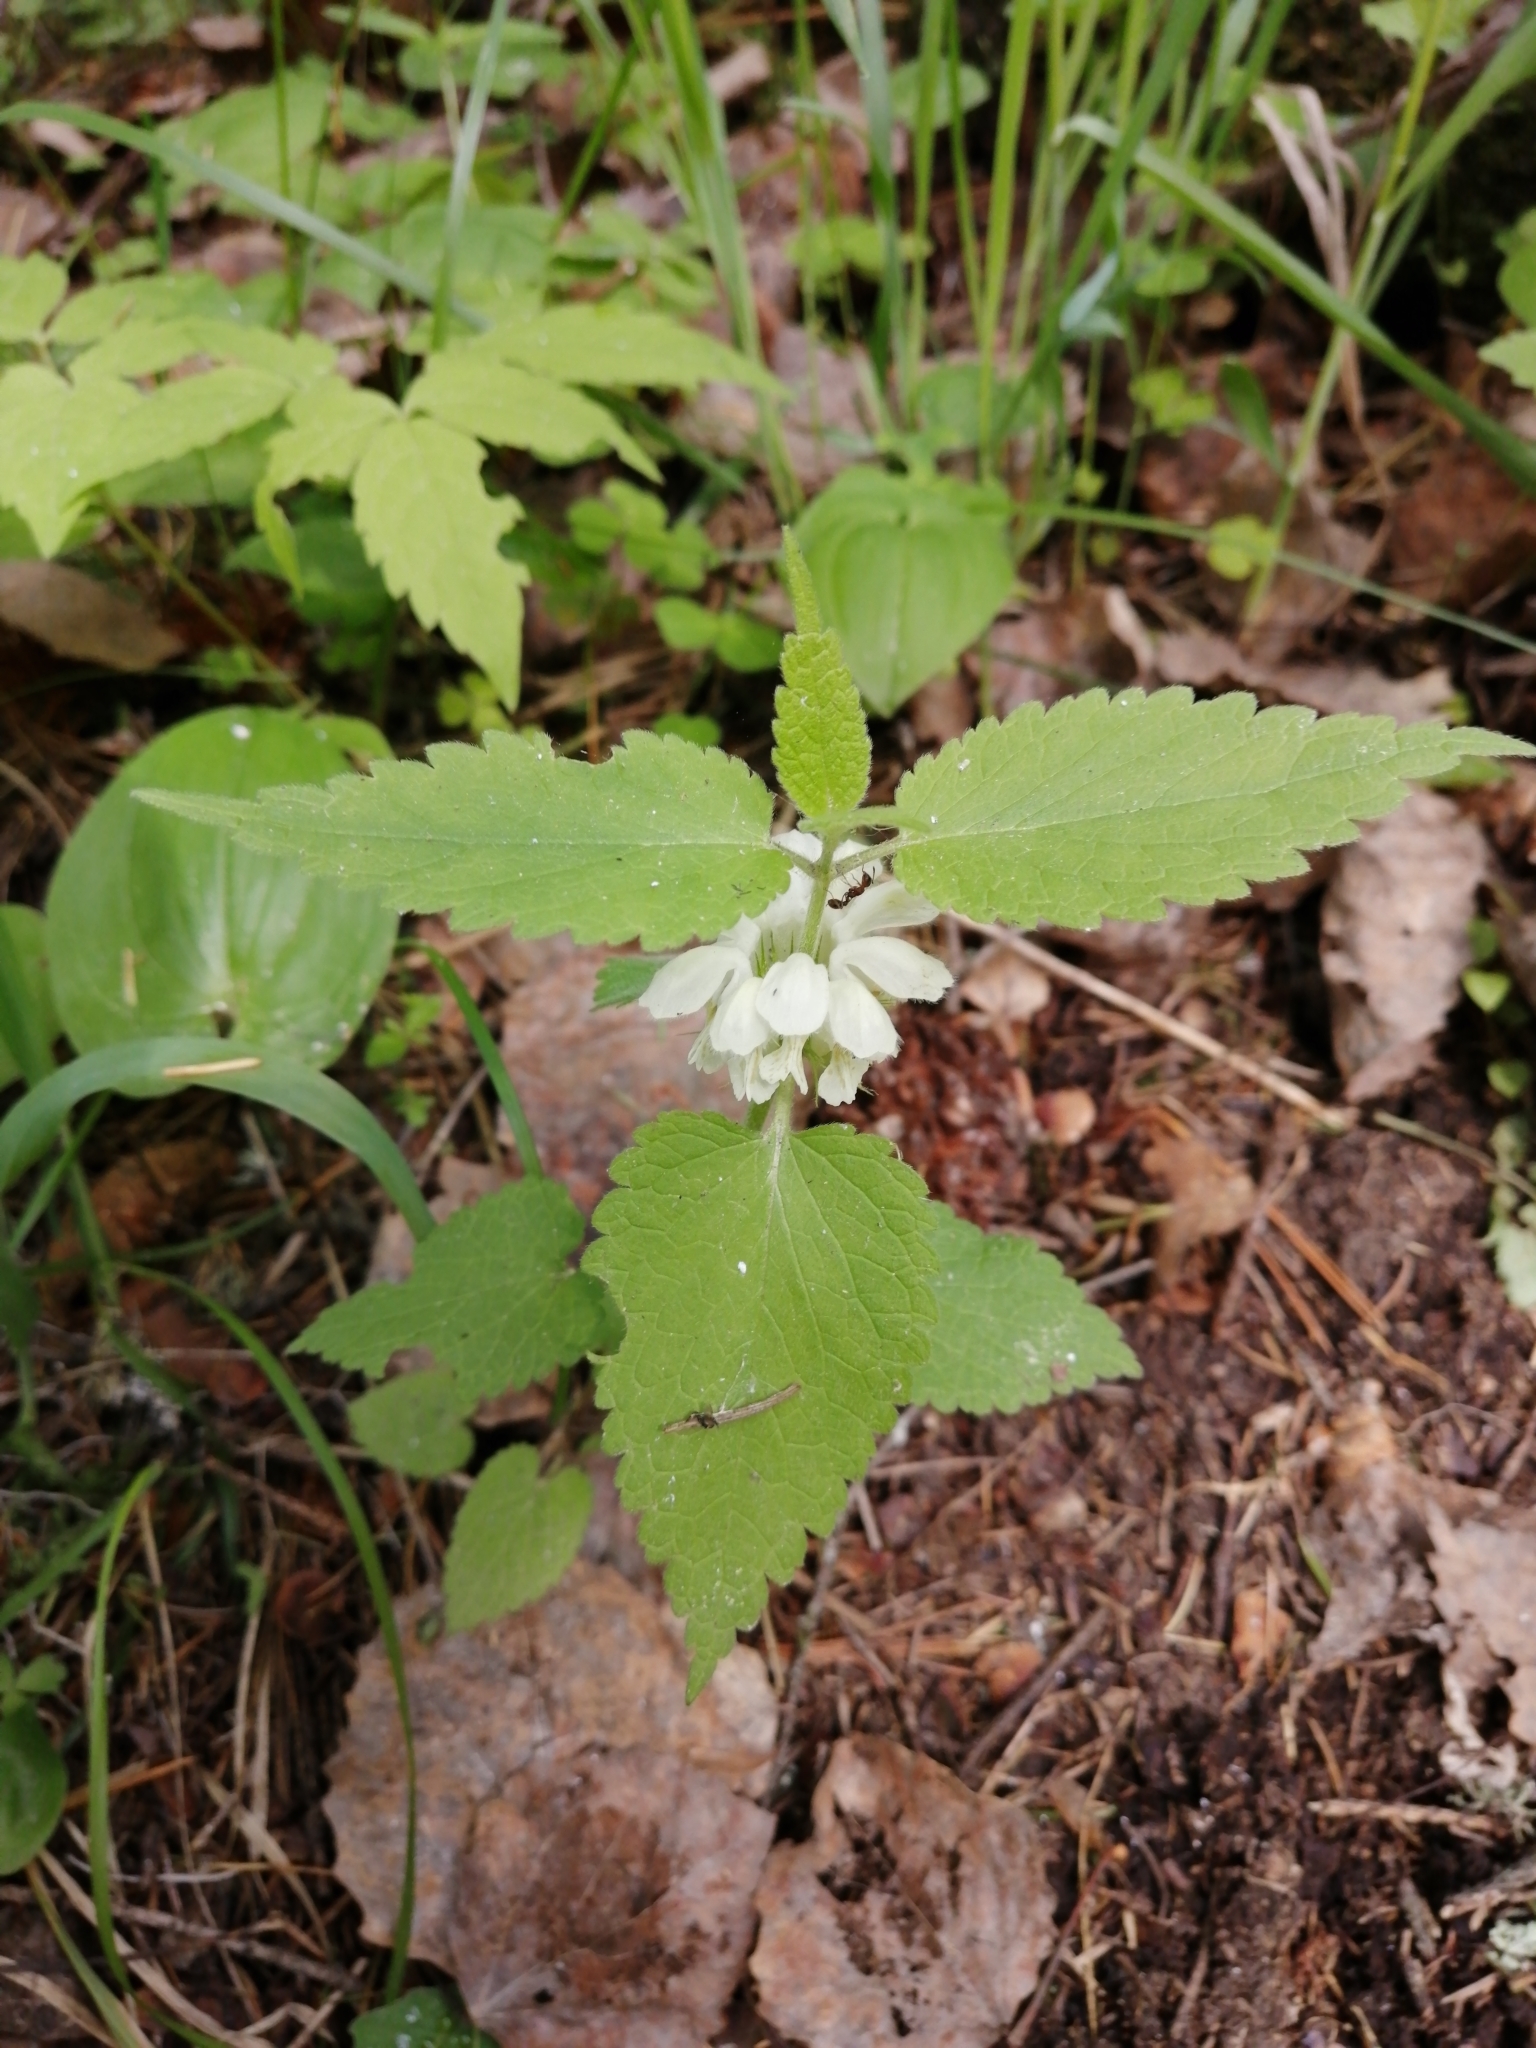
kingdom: Plantae
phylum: Tracheophyta
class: Magnoliopsida
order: Lamiales
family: Lamiaceae
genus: Lamium
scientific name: Lamium album
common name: White dead-nettle
